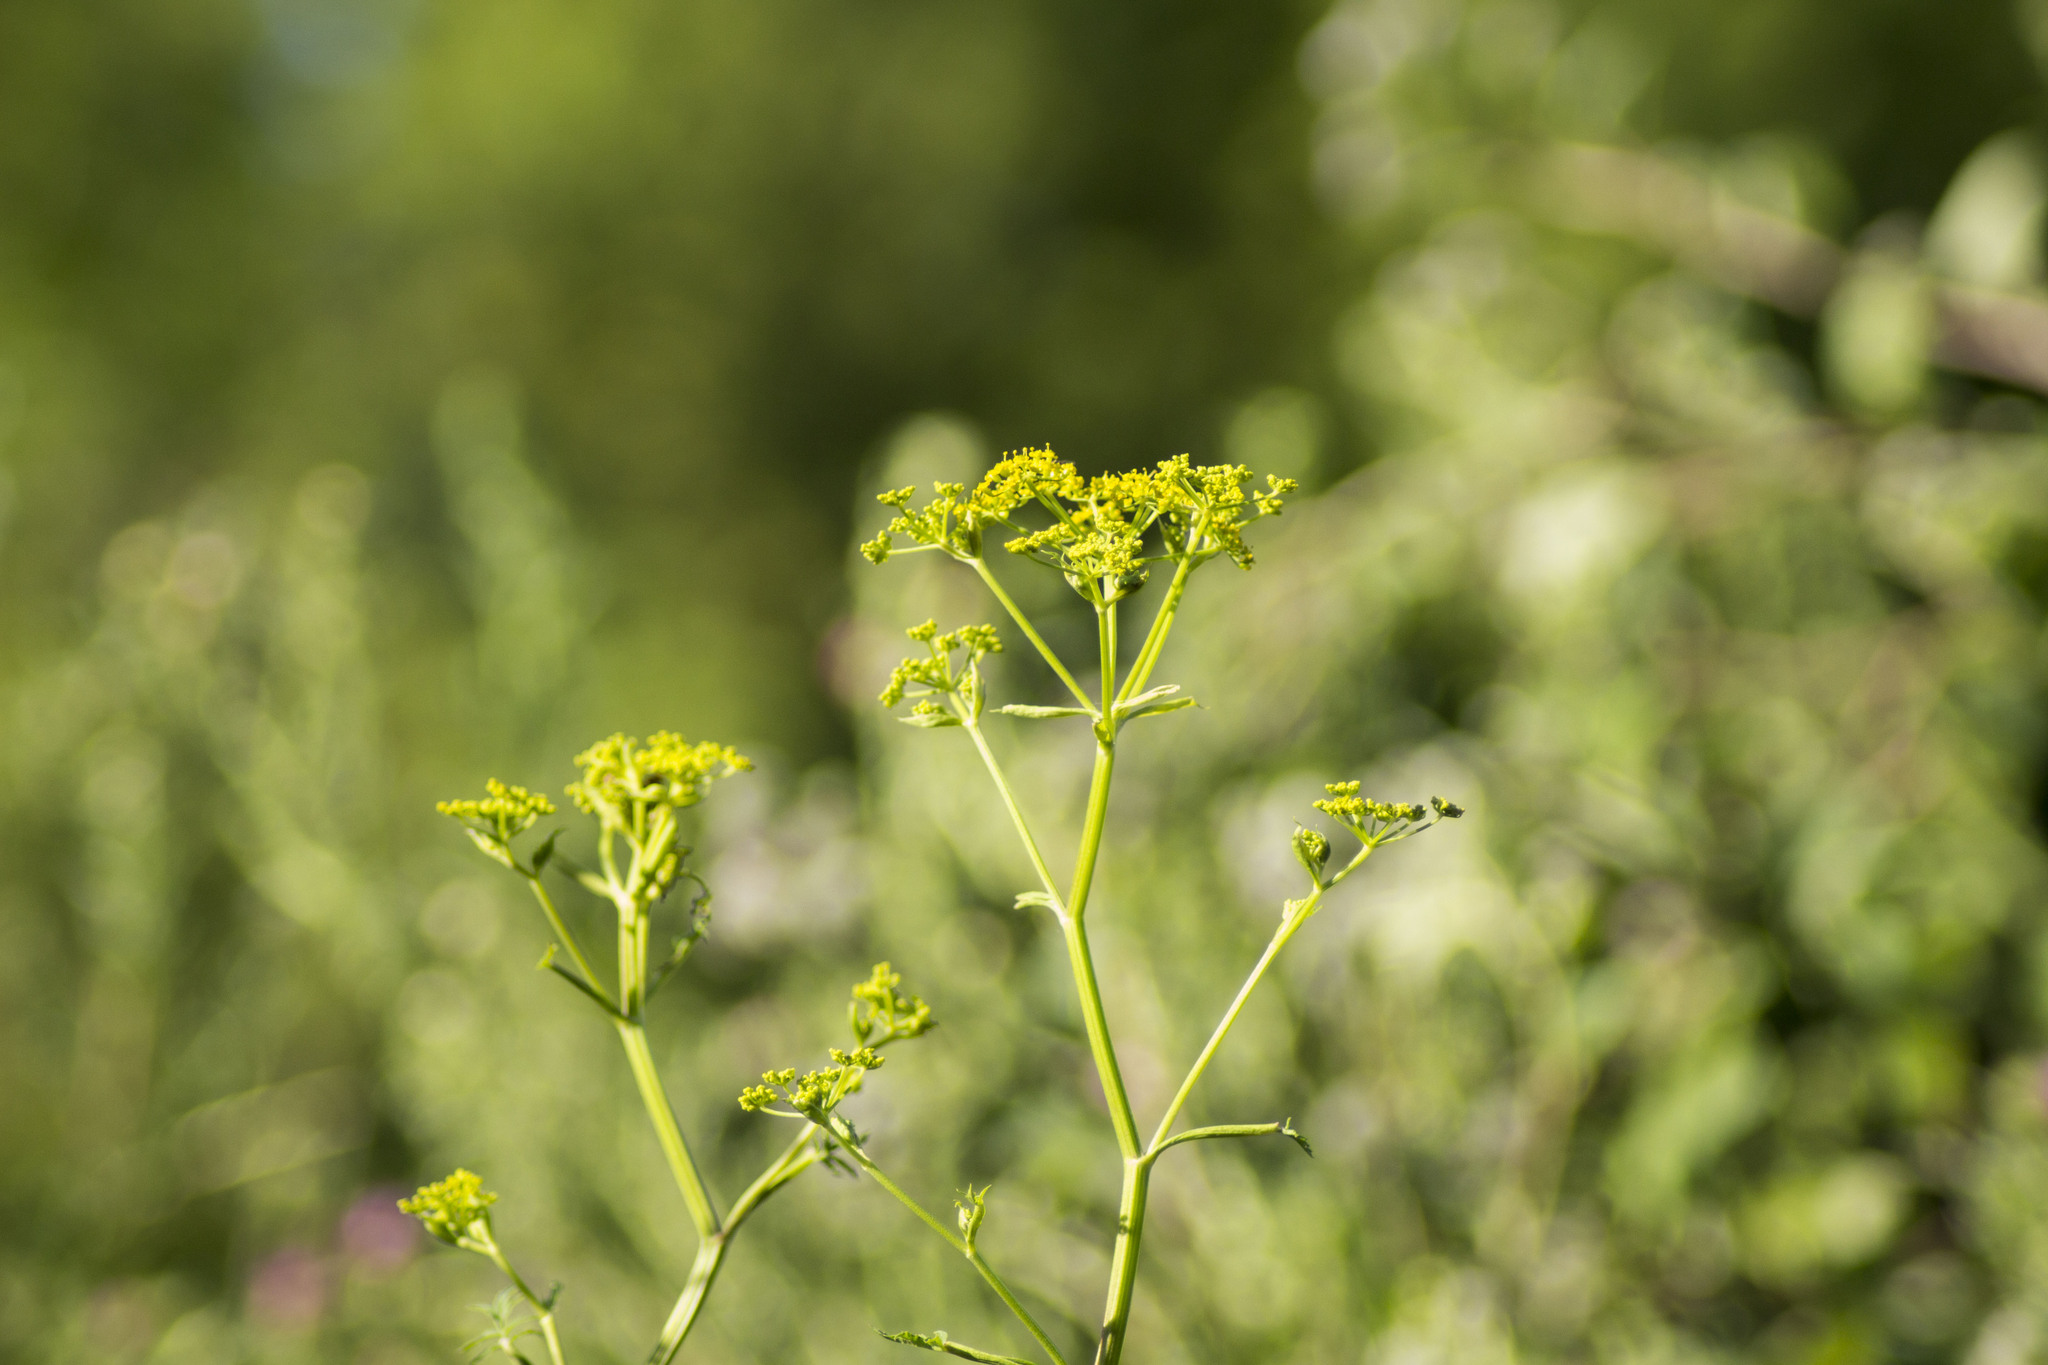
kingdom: Plantae
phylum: Tracheophyta
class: Magnoliopsida
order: Apiales
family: Apiaceae
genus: Pastinaca
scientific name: Pastinaca sativa
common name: Wild parsnip
